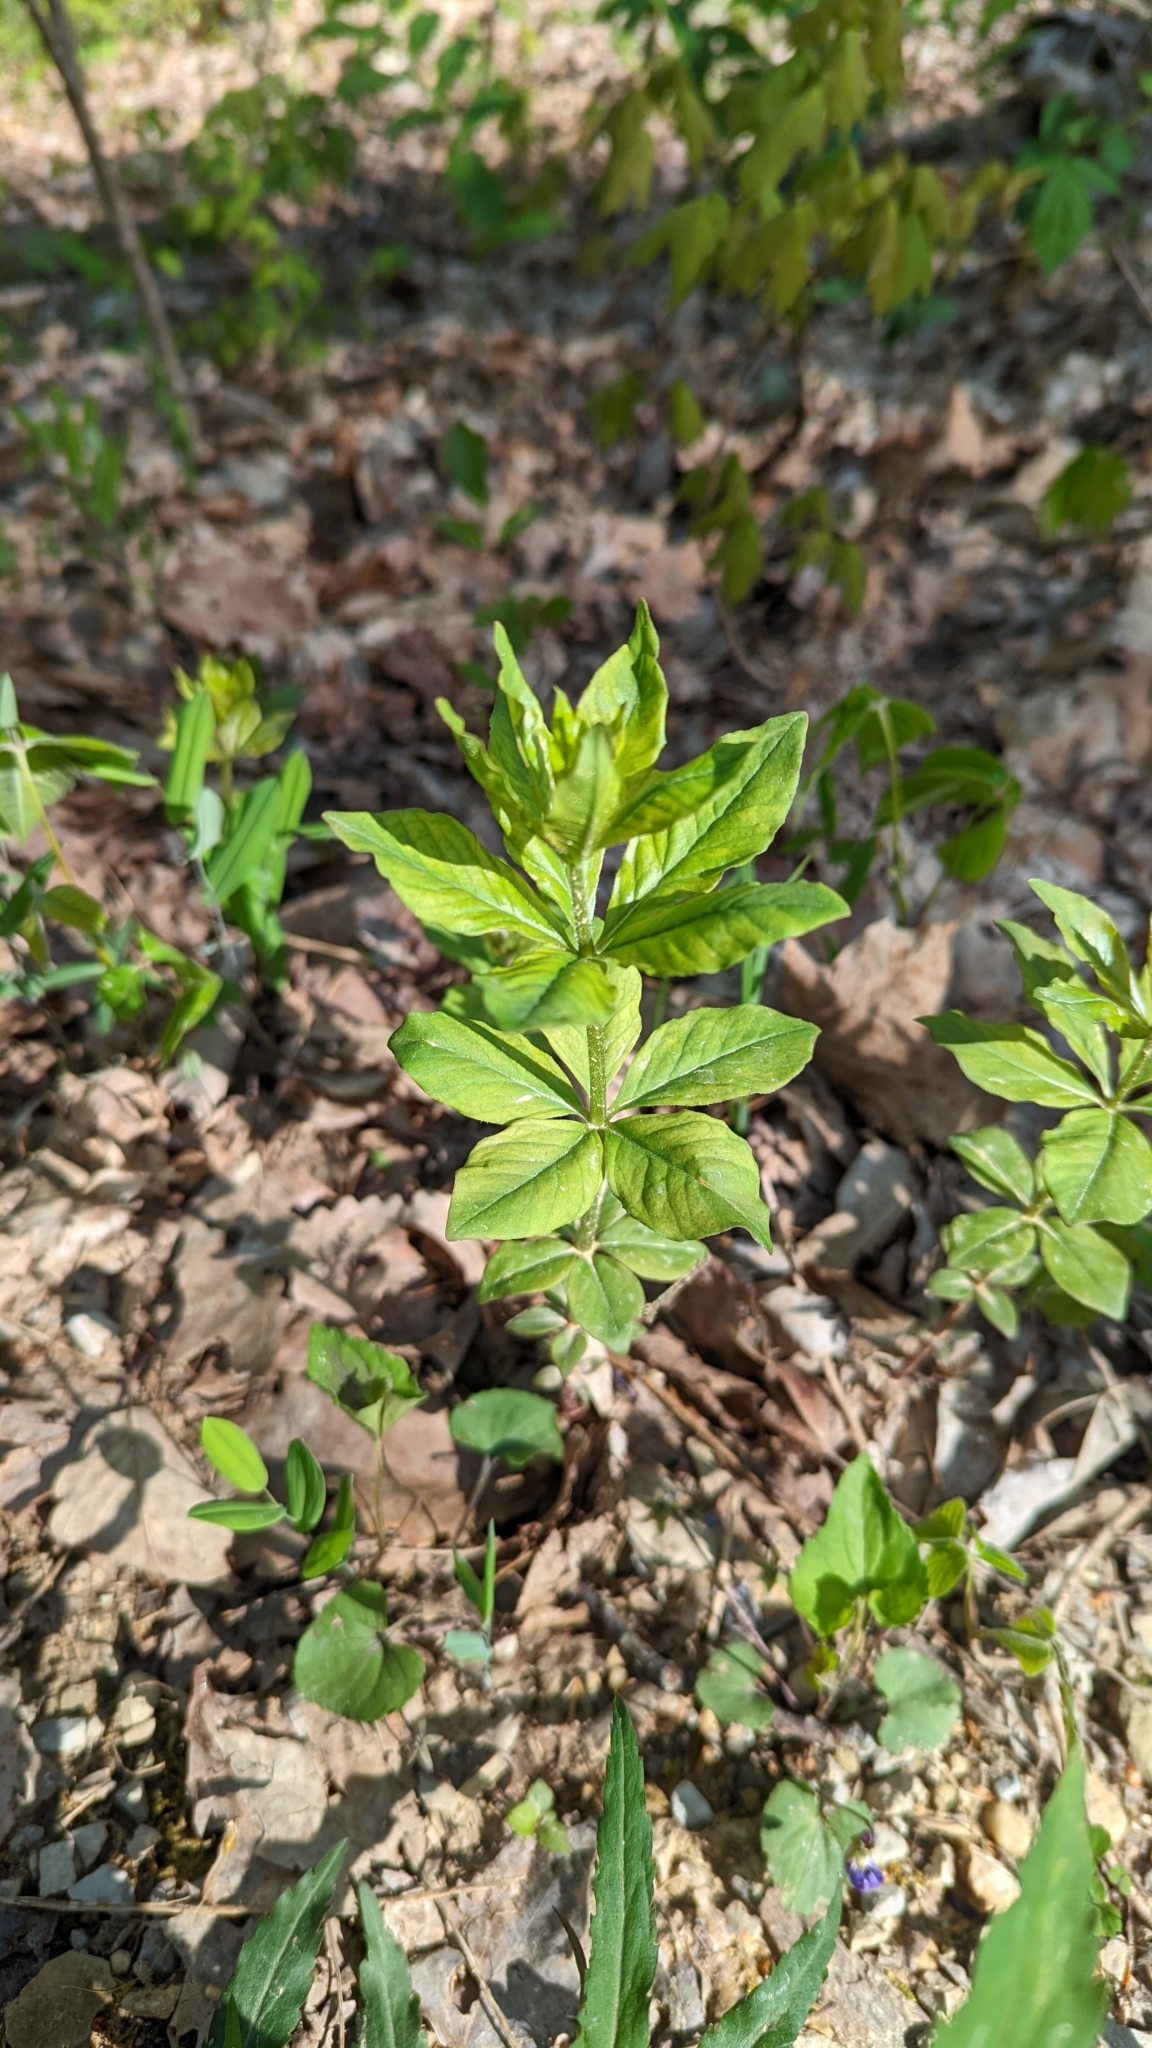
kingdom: Plantae
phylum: Tracheophyta
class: Magnoliopsida
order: Ericales
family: Primulaceae
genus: Lysimachia
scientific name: Lysimachia quadrifolia
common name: Whorled loosestrife
